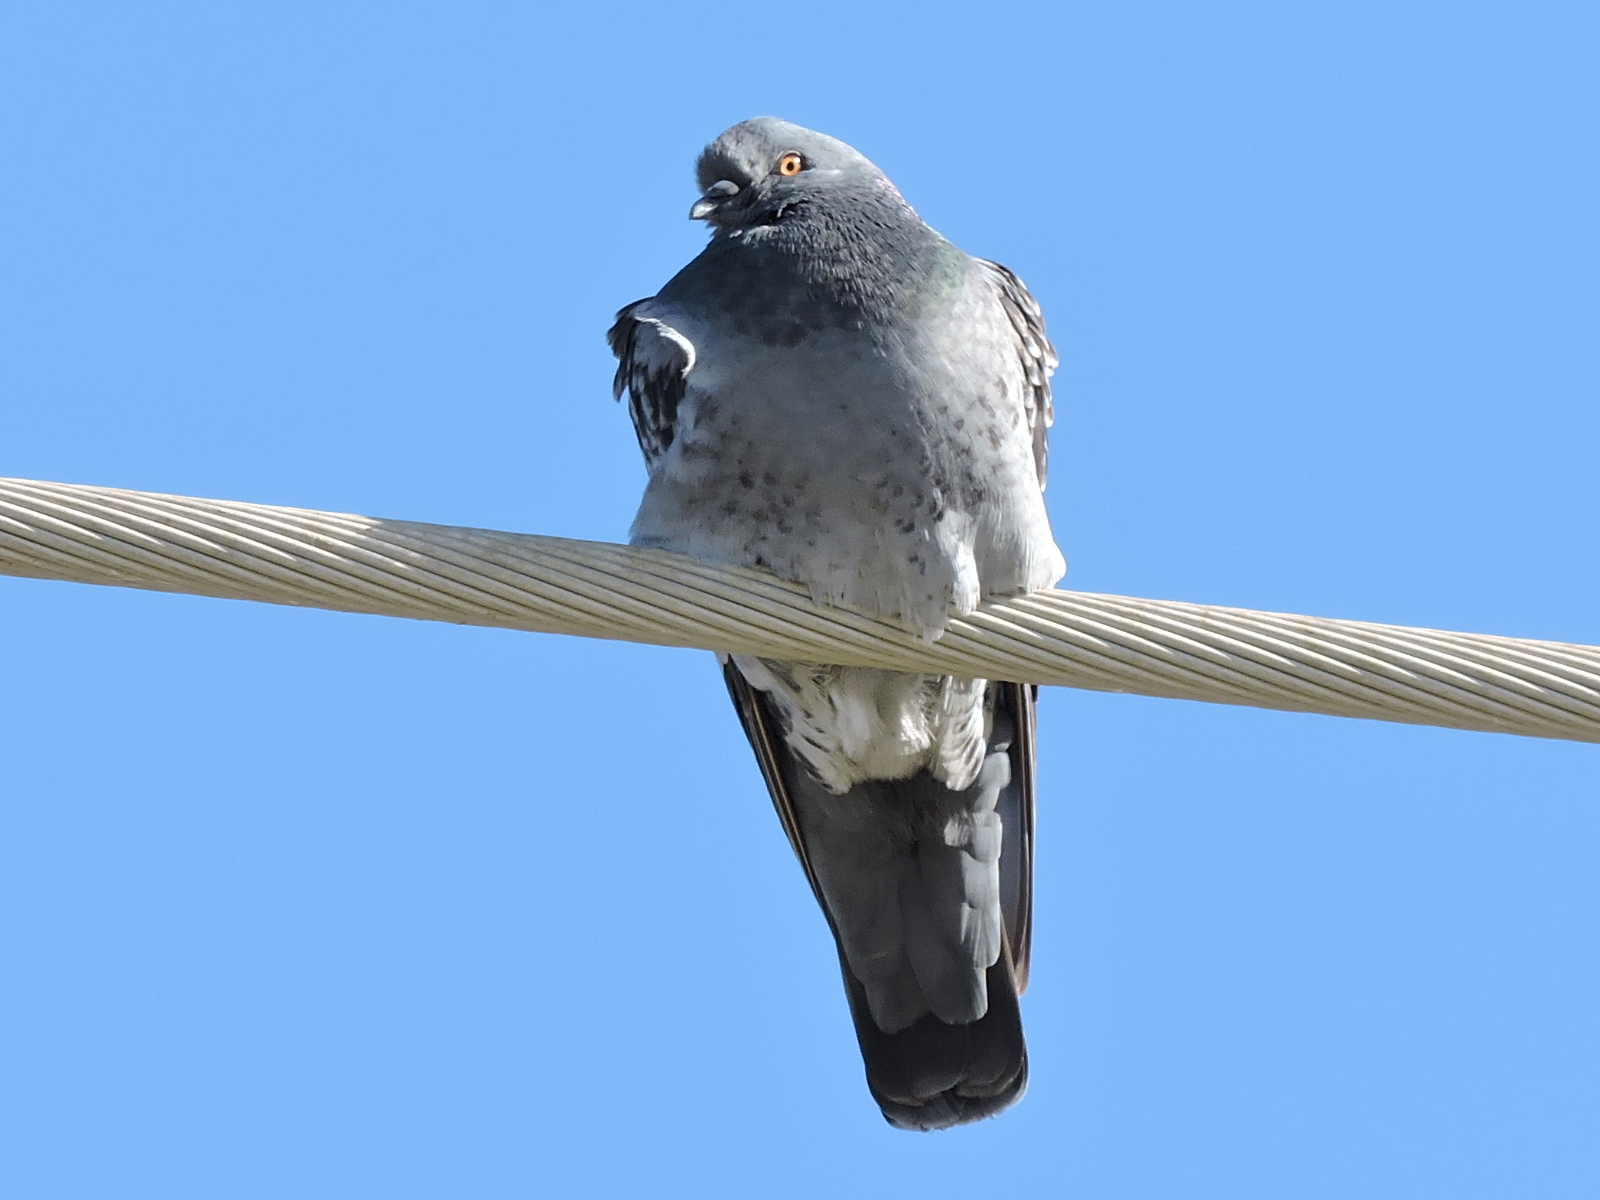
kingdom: Animalia
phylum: Chordata
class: Aves
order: Columbiformes
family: Columbidae
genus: Columba
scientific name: Columba livia
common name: Rock pigeon
